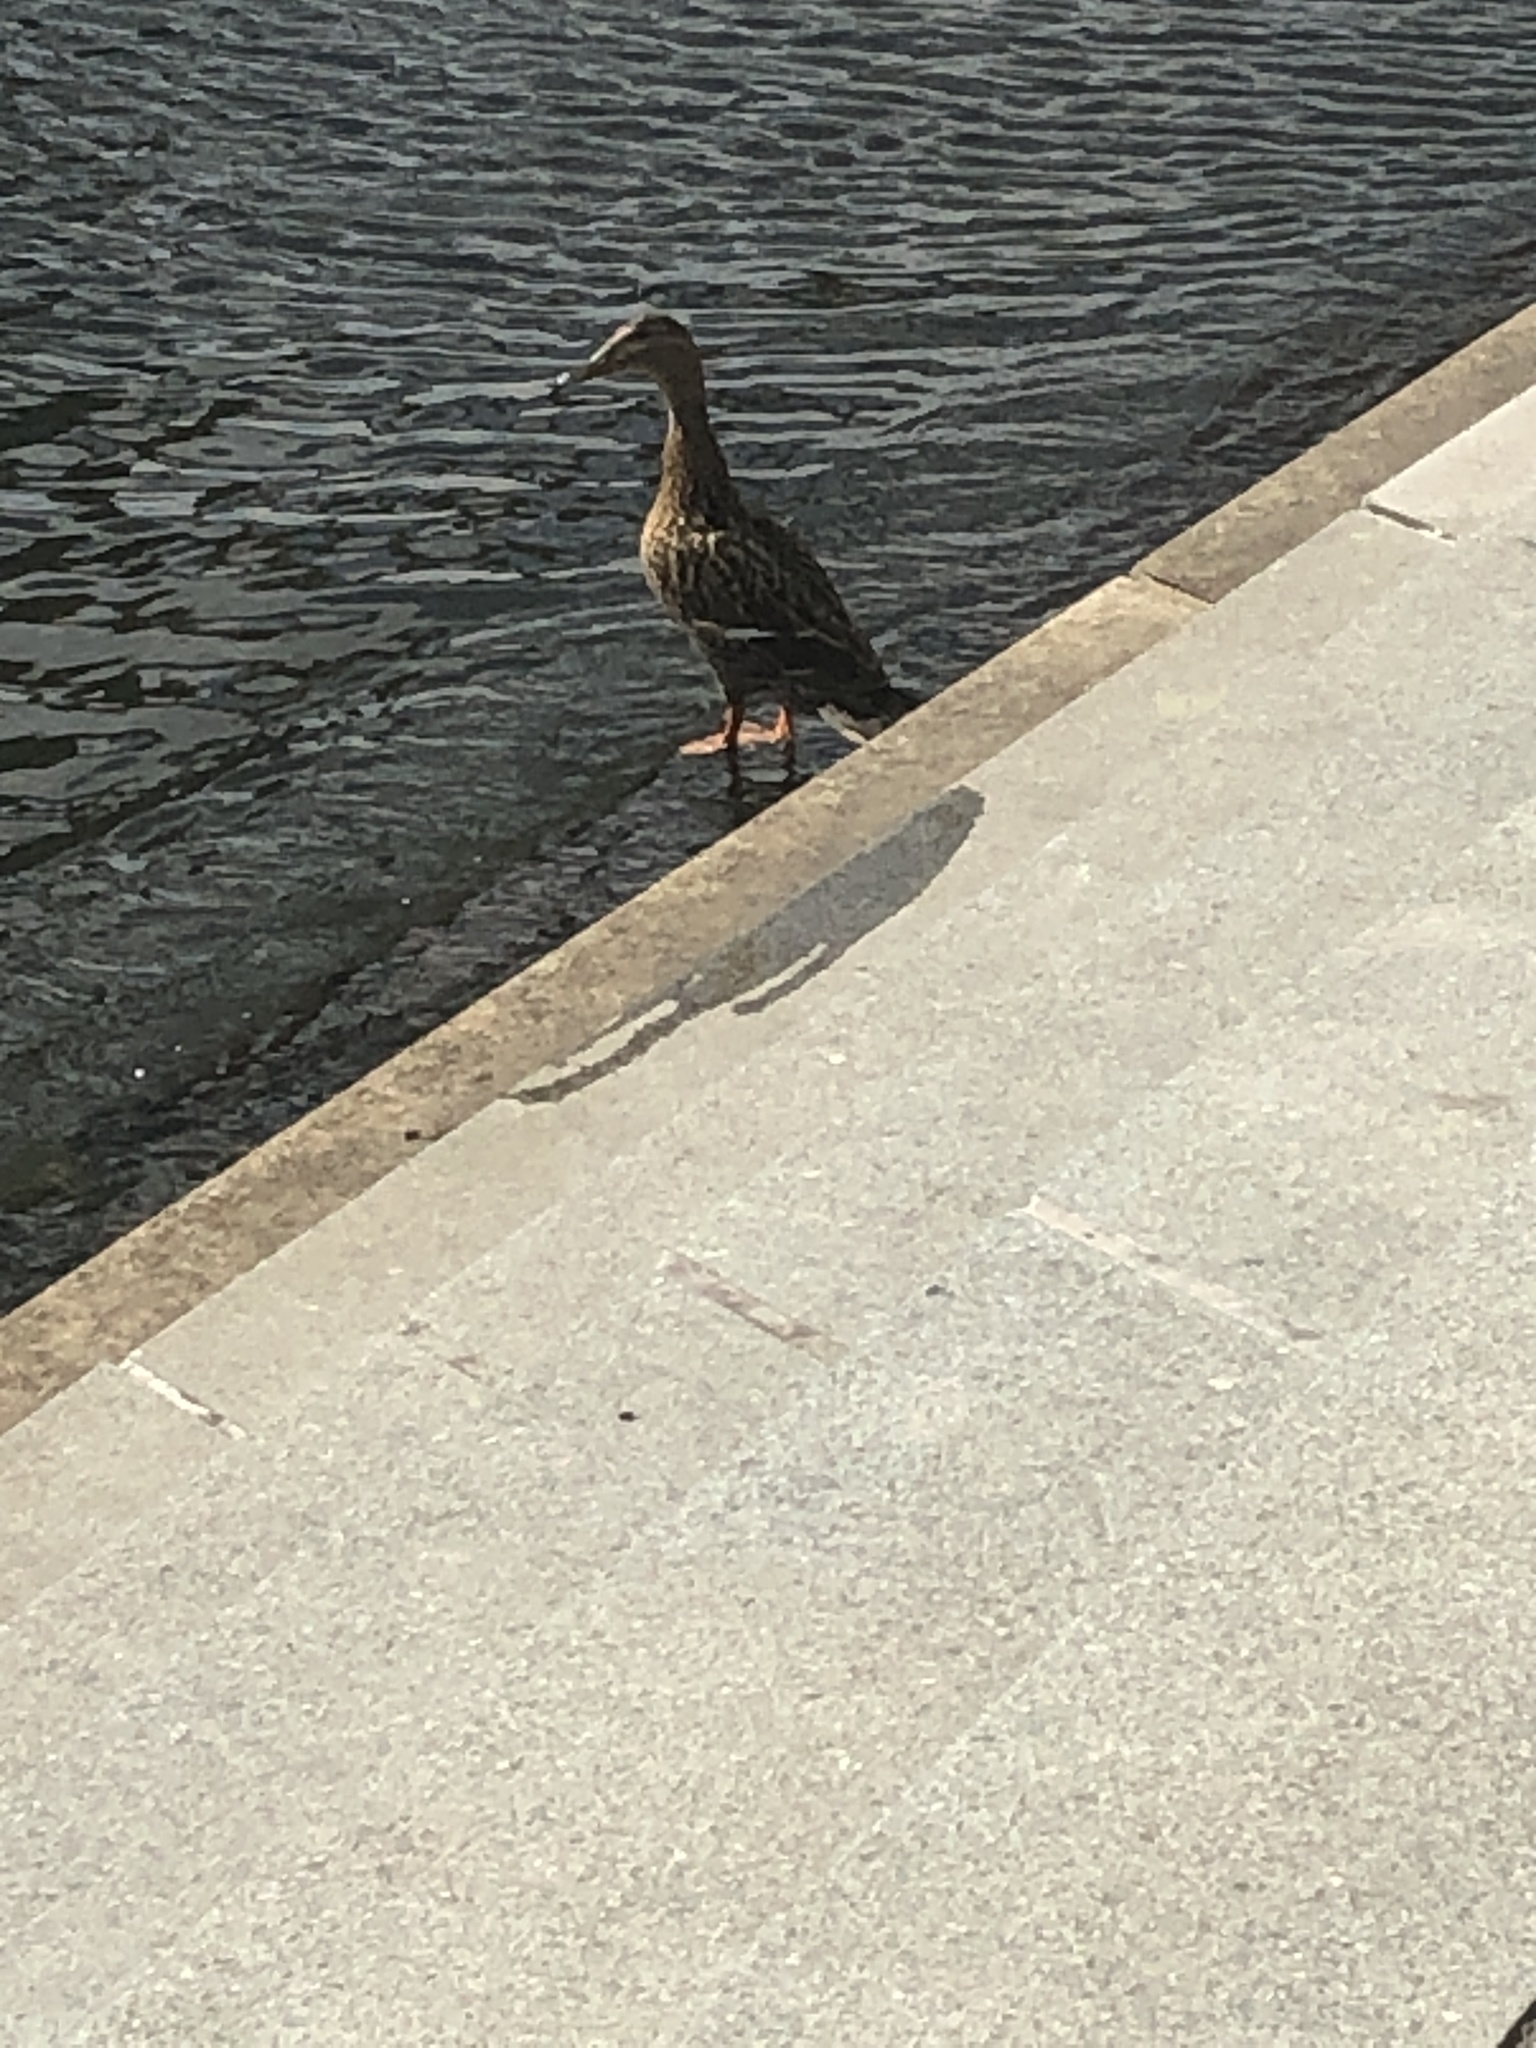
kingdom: Animalia
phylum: Chordata
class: Aves
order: Anseriformes
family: Anatidae
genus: Anas
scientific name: Anas platyrhynchos
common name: Mallard
